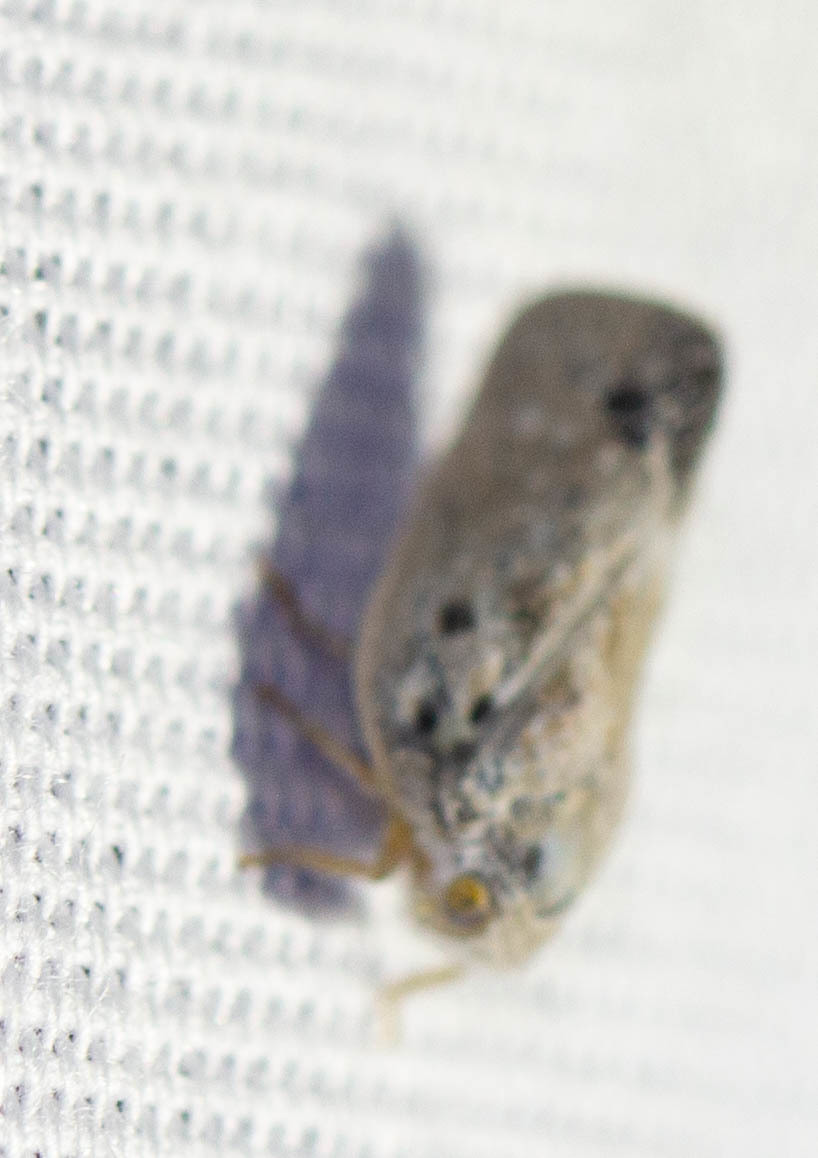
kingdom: Animalia
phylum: Arthropoda
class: Insecta
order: Hemiptera
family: Flatidae
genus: Metcalfa
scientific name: Metcalfa pruinosa
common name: Citrus flatid planthopper
